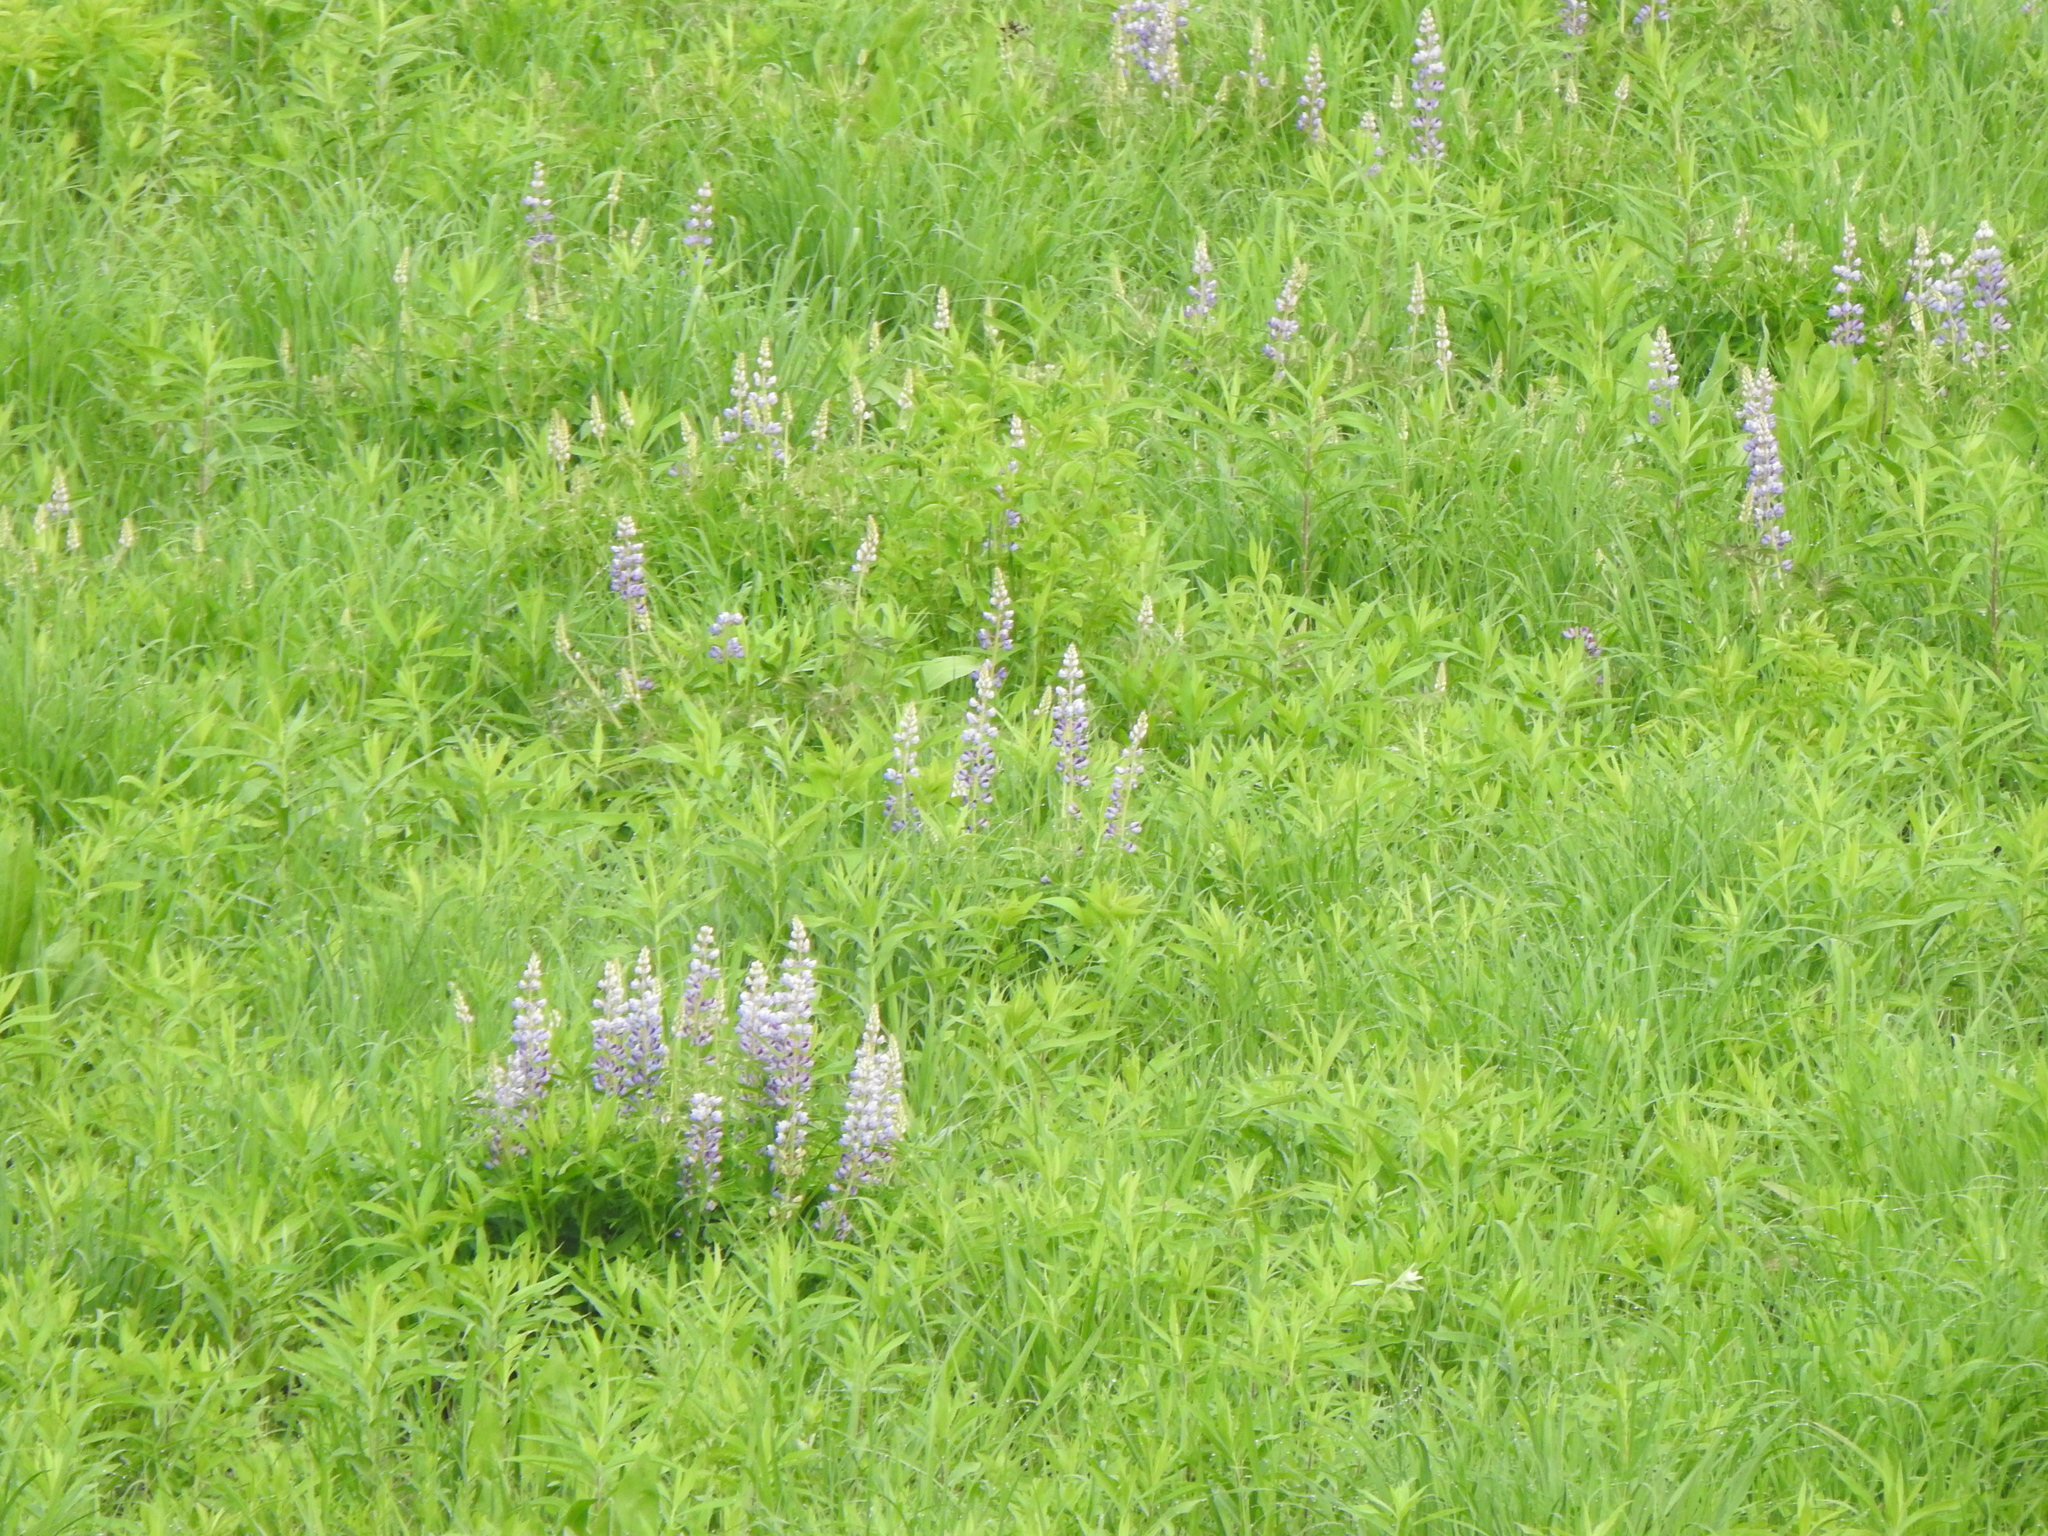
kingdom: Plantae
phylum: Tracheophyta
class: Magnoliopsida
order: Fabales
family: Fabaceae
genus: Lupinus
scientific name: Lupinus perennis
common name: Sundial lupine
